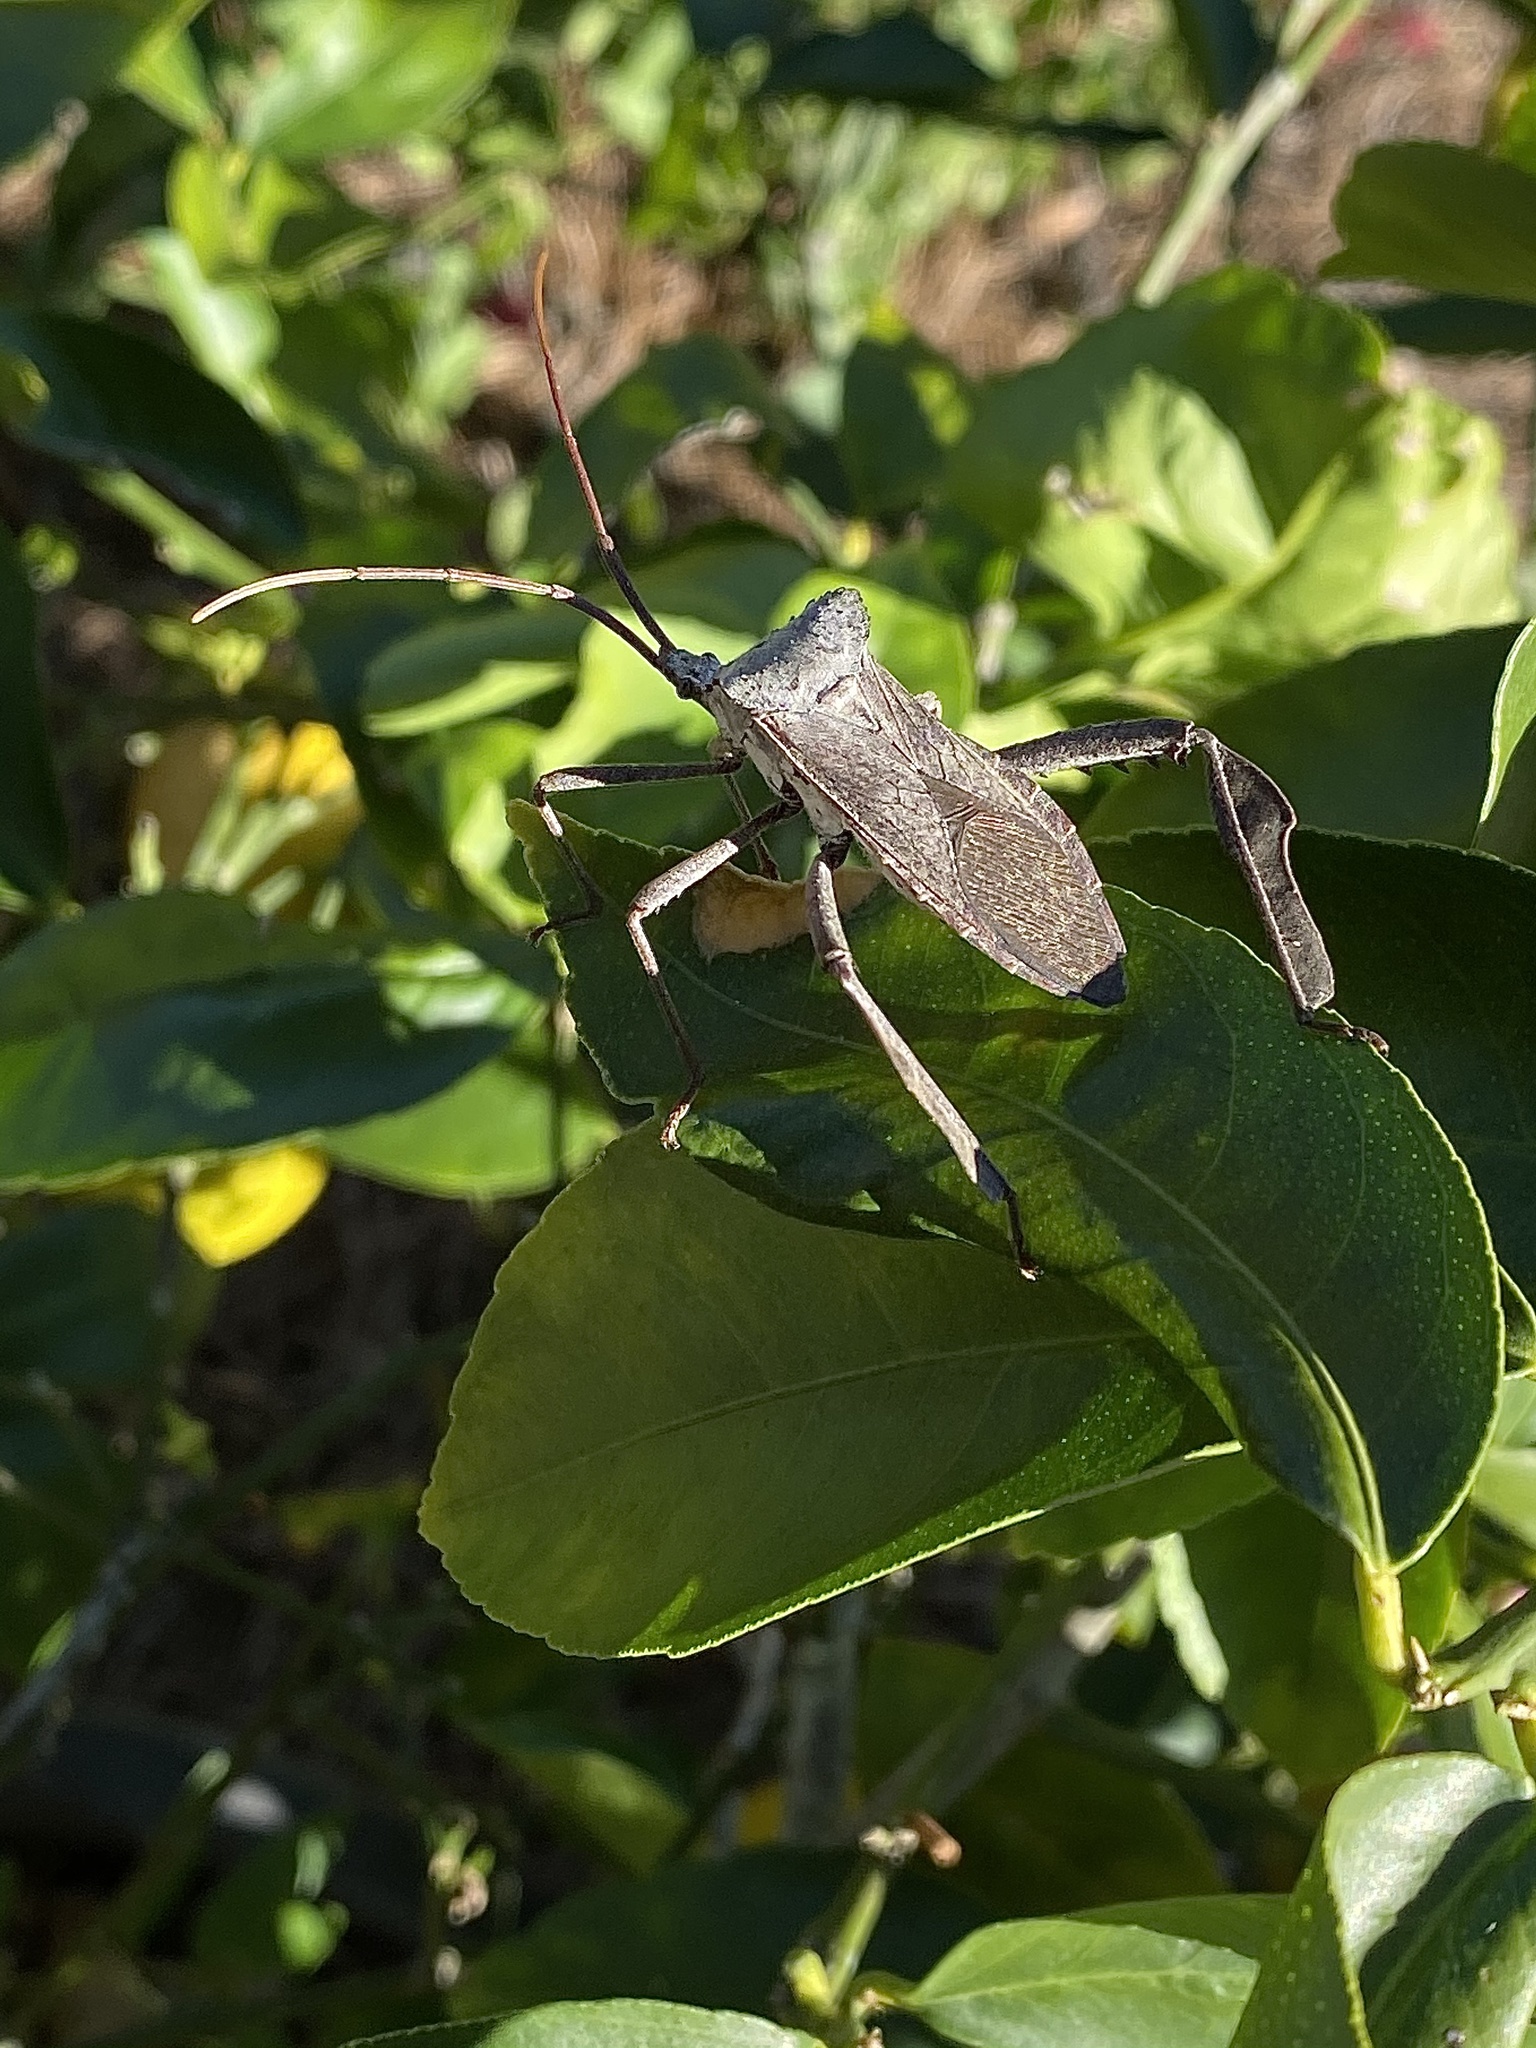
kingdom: Animalia
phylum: Arthropoda
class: Insecta
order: Hemiptera
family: Coreidae
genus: Acanthocephala
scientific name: Acanthocephala declivis
